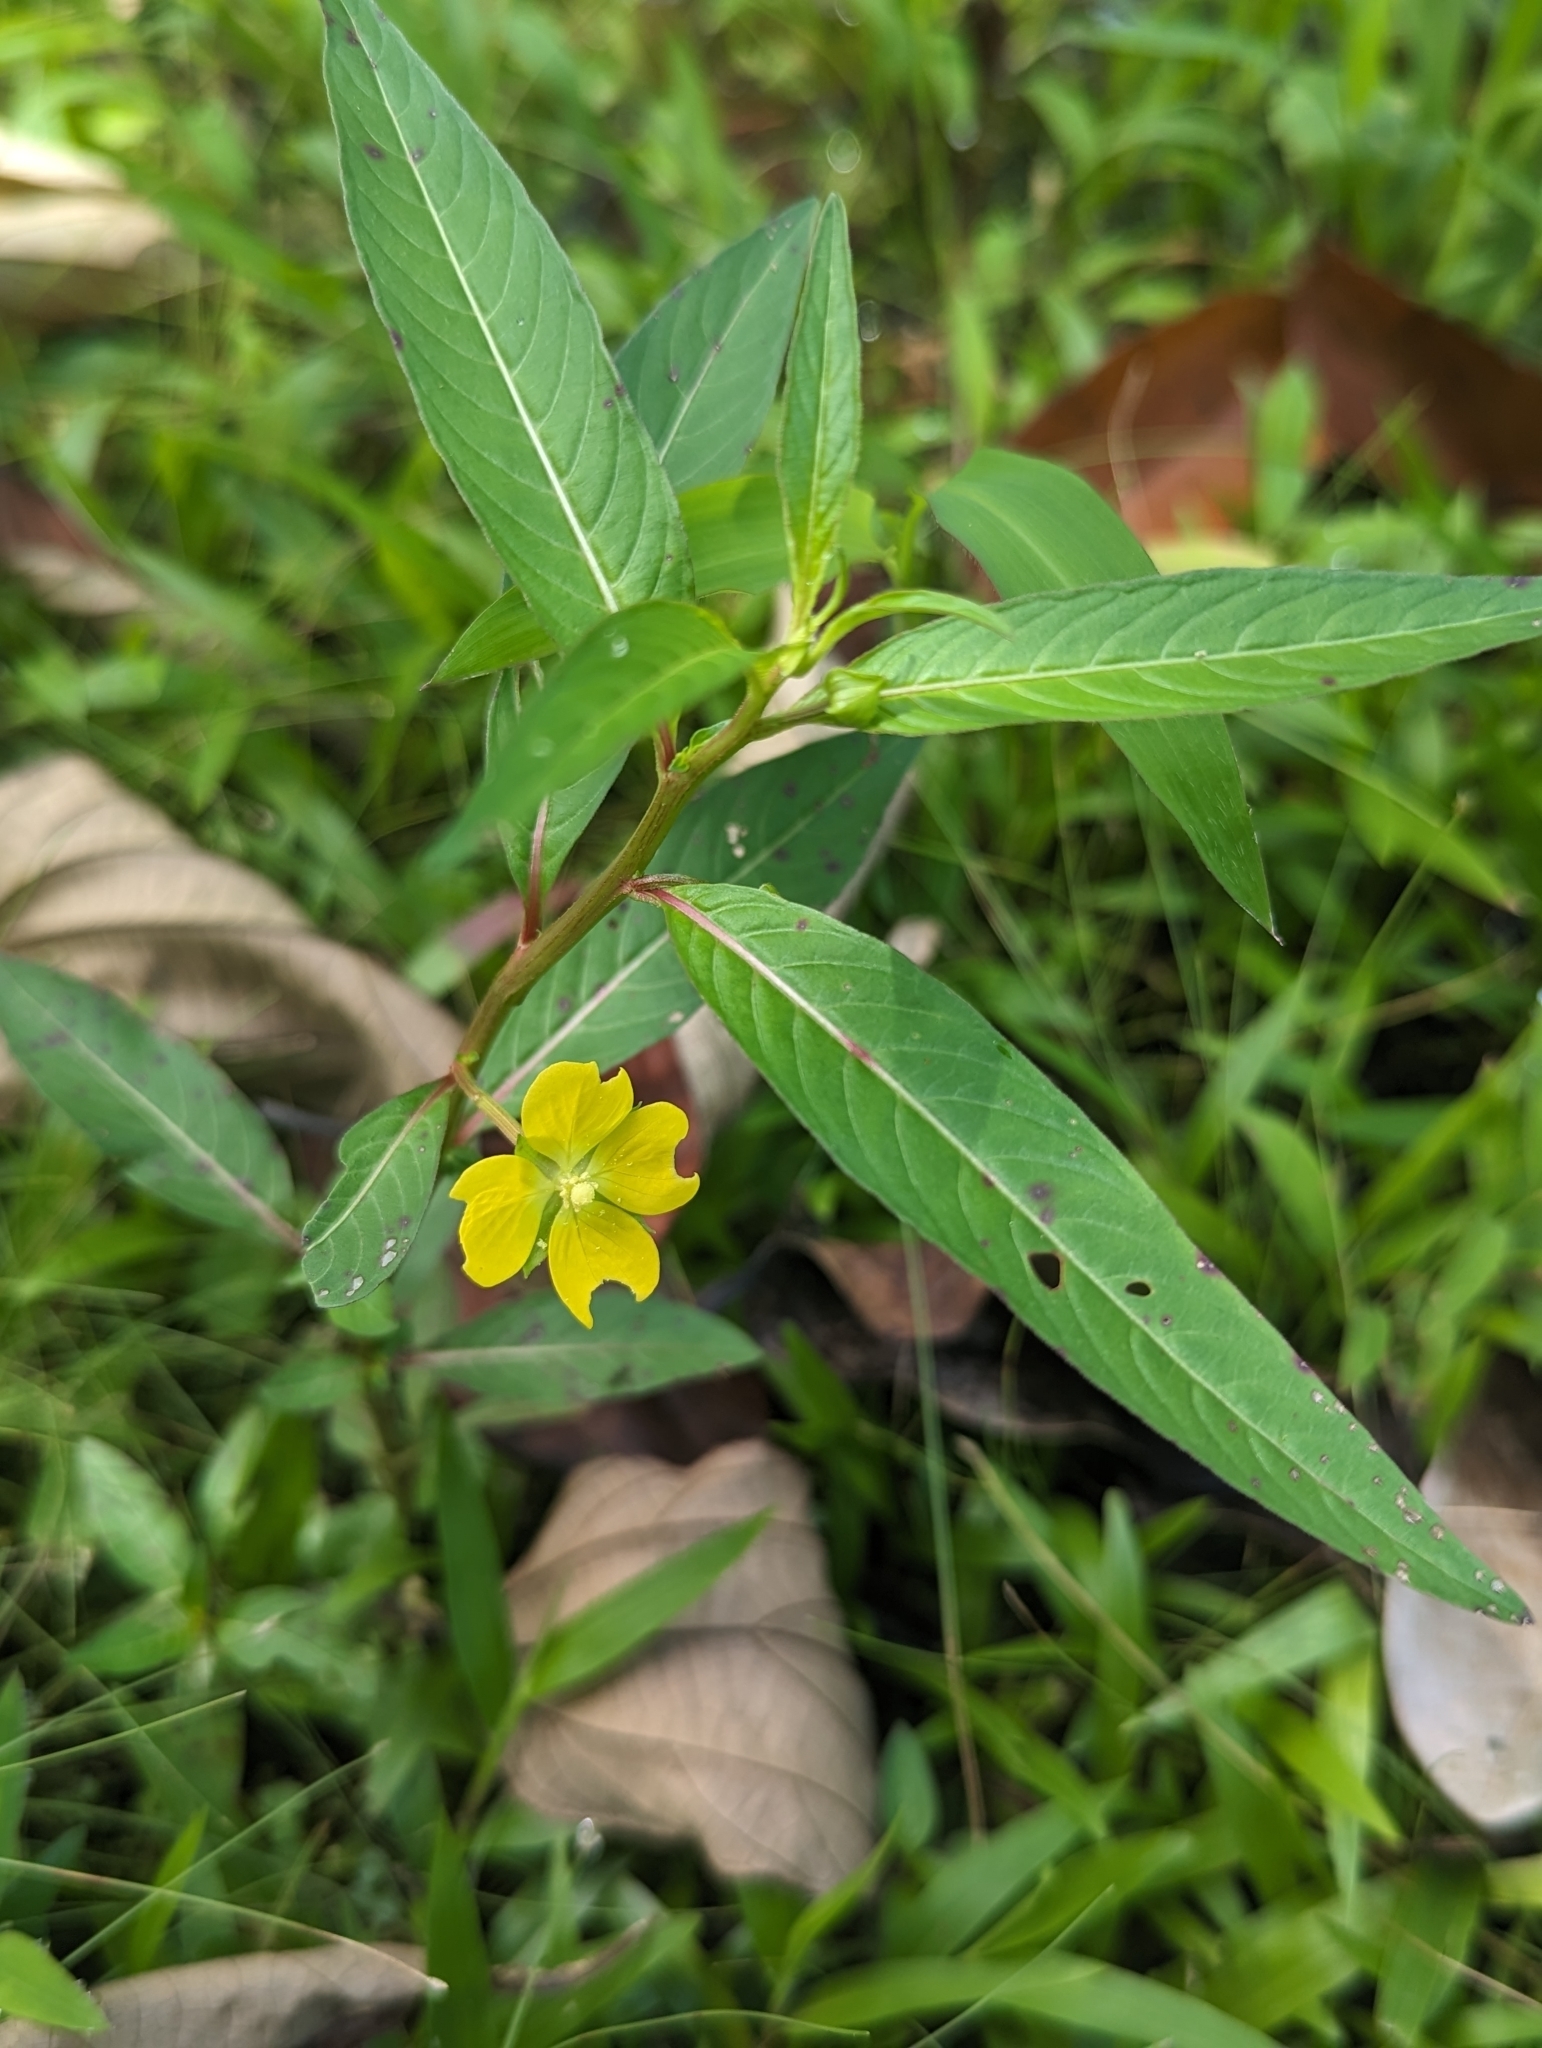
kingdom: Plantae
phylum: Tracheophyta
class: Magnoliopsida
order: Myrtales
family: Onagraceae
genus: Ludwigia
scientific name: Ludwigia octovalvis
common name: Water-primrose
